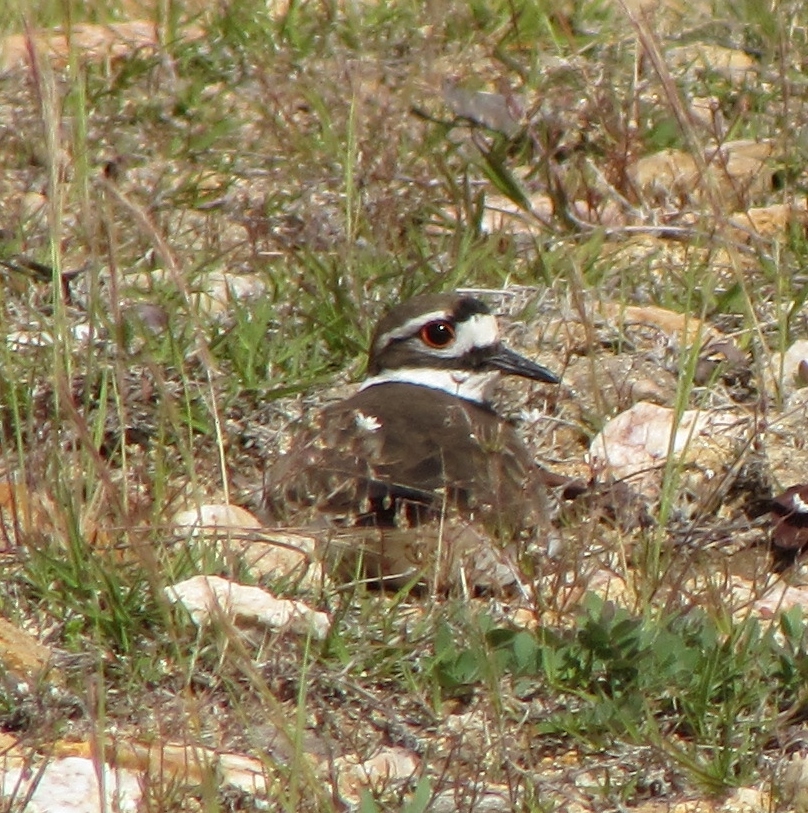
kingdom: Animalia
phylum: Chordata
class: Aves
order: Charadriiformes
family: Charadriidae
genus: Charadrius
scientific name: Charadrius vociferus
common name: Killdeer
